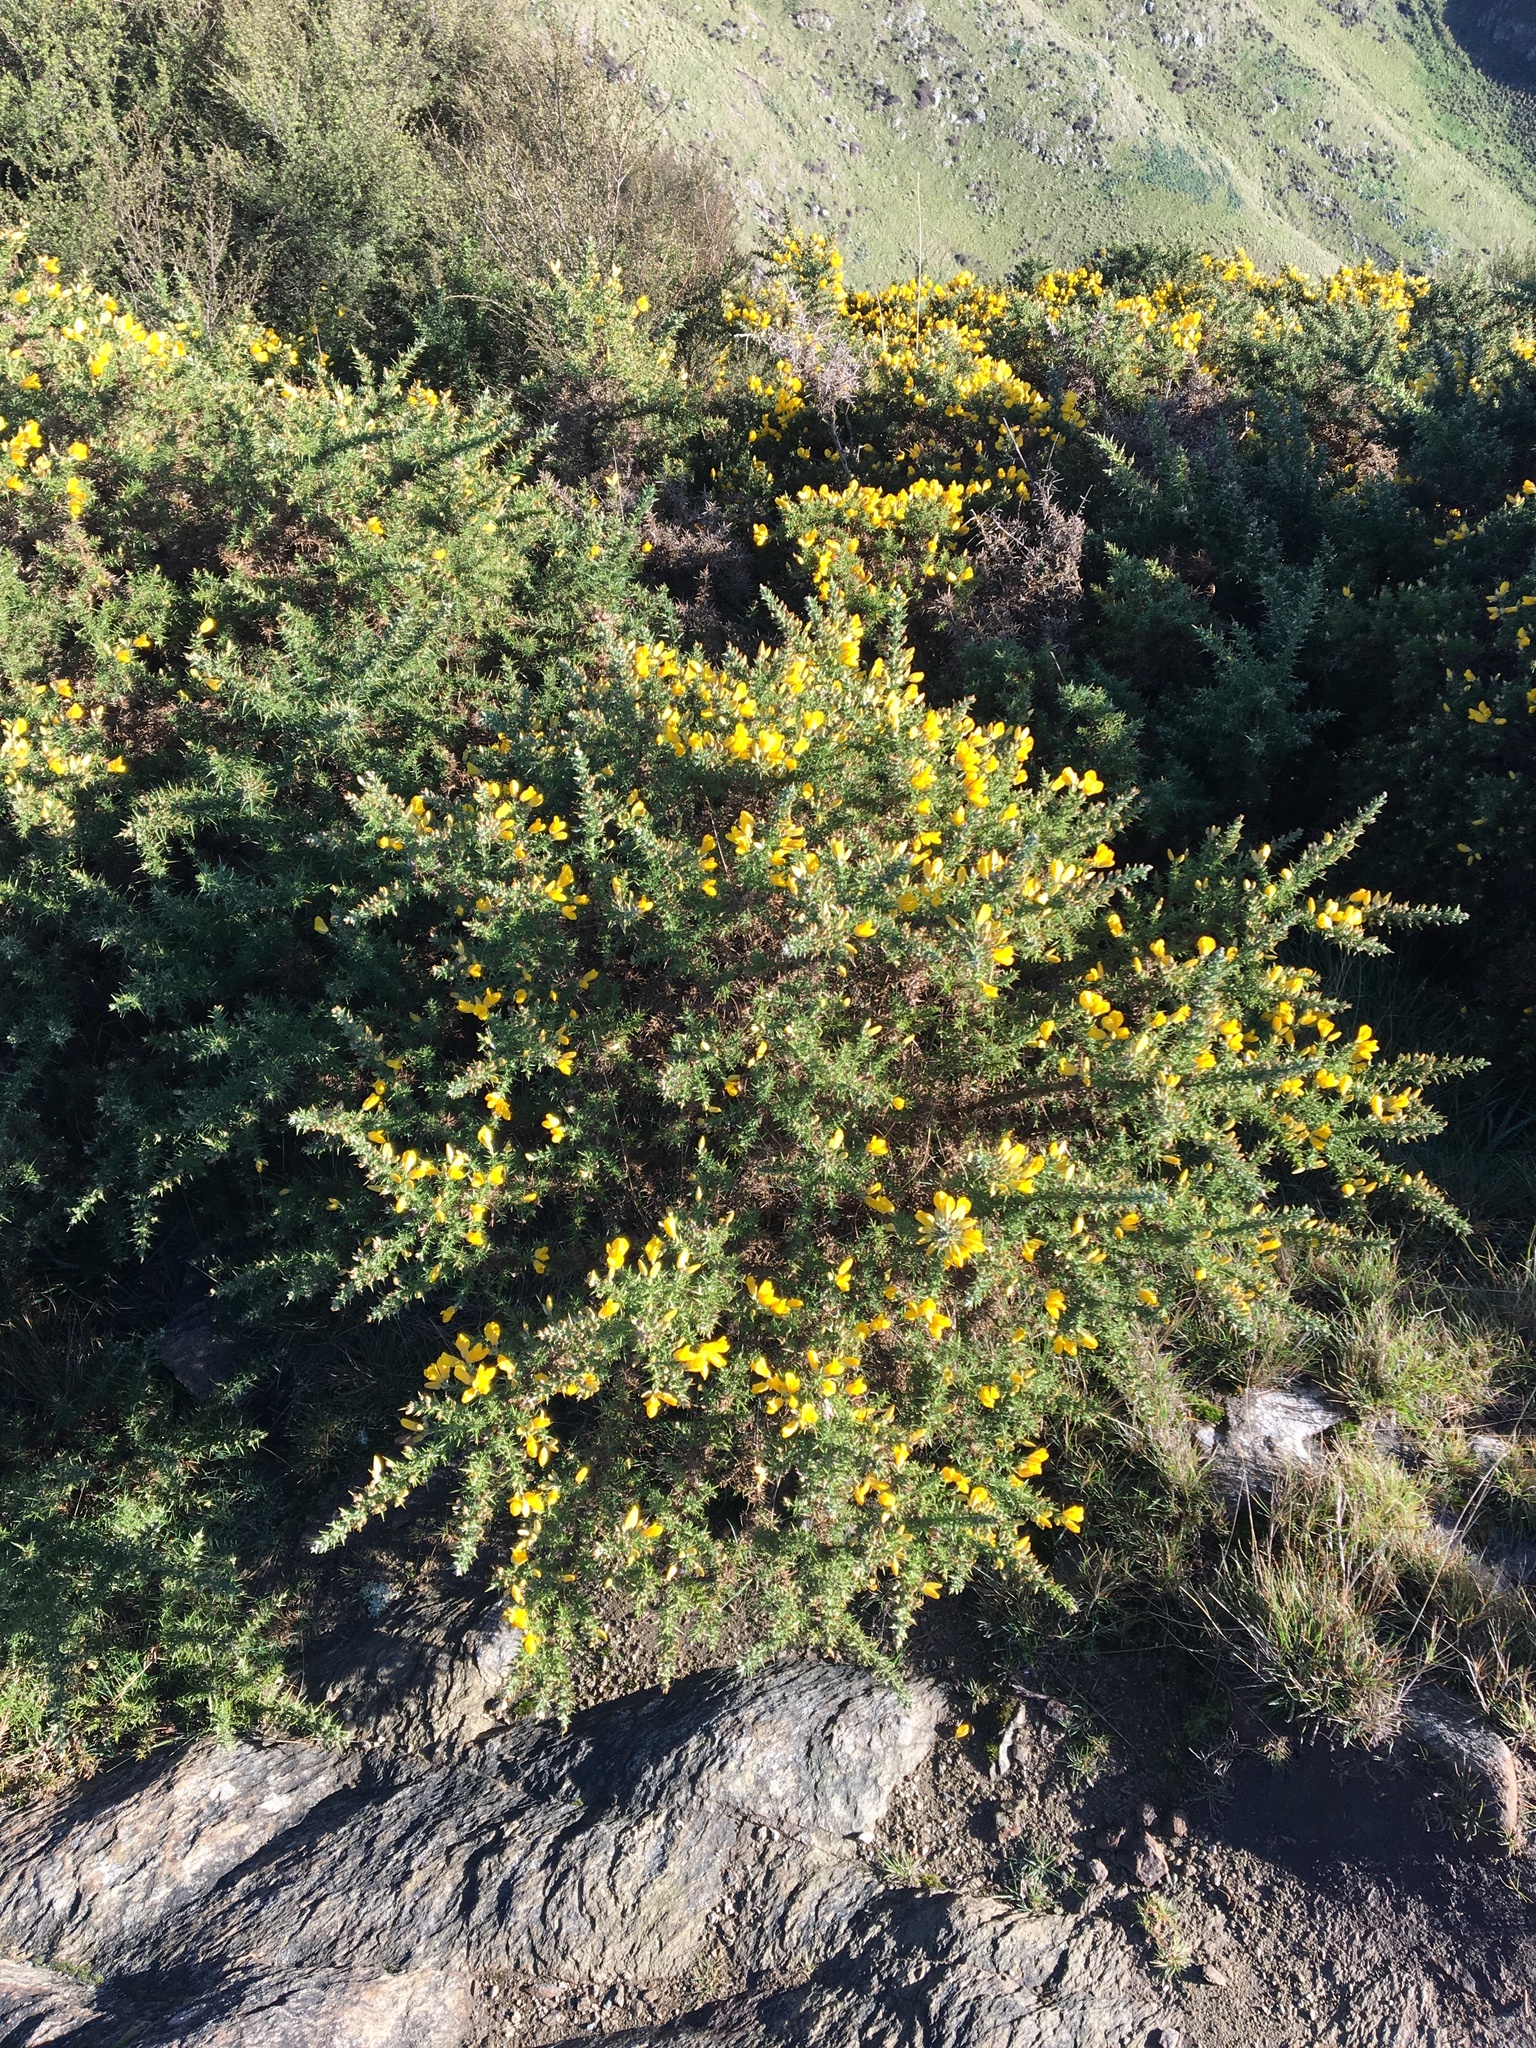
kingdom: Plantae
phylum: Tracheophyta
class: Magnoliopsida
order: Fabales
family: Fabaceae
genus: Ulex
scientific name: Ulex europaeus
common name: Common gorse
